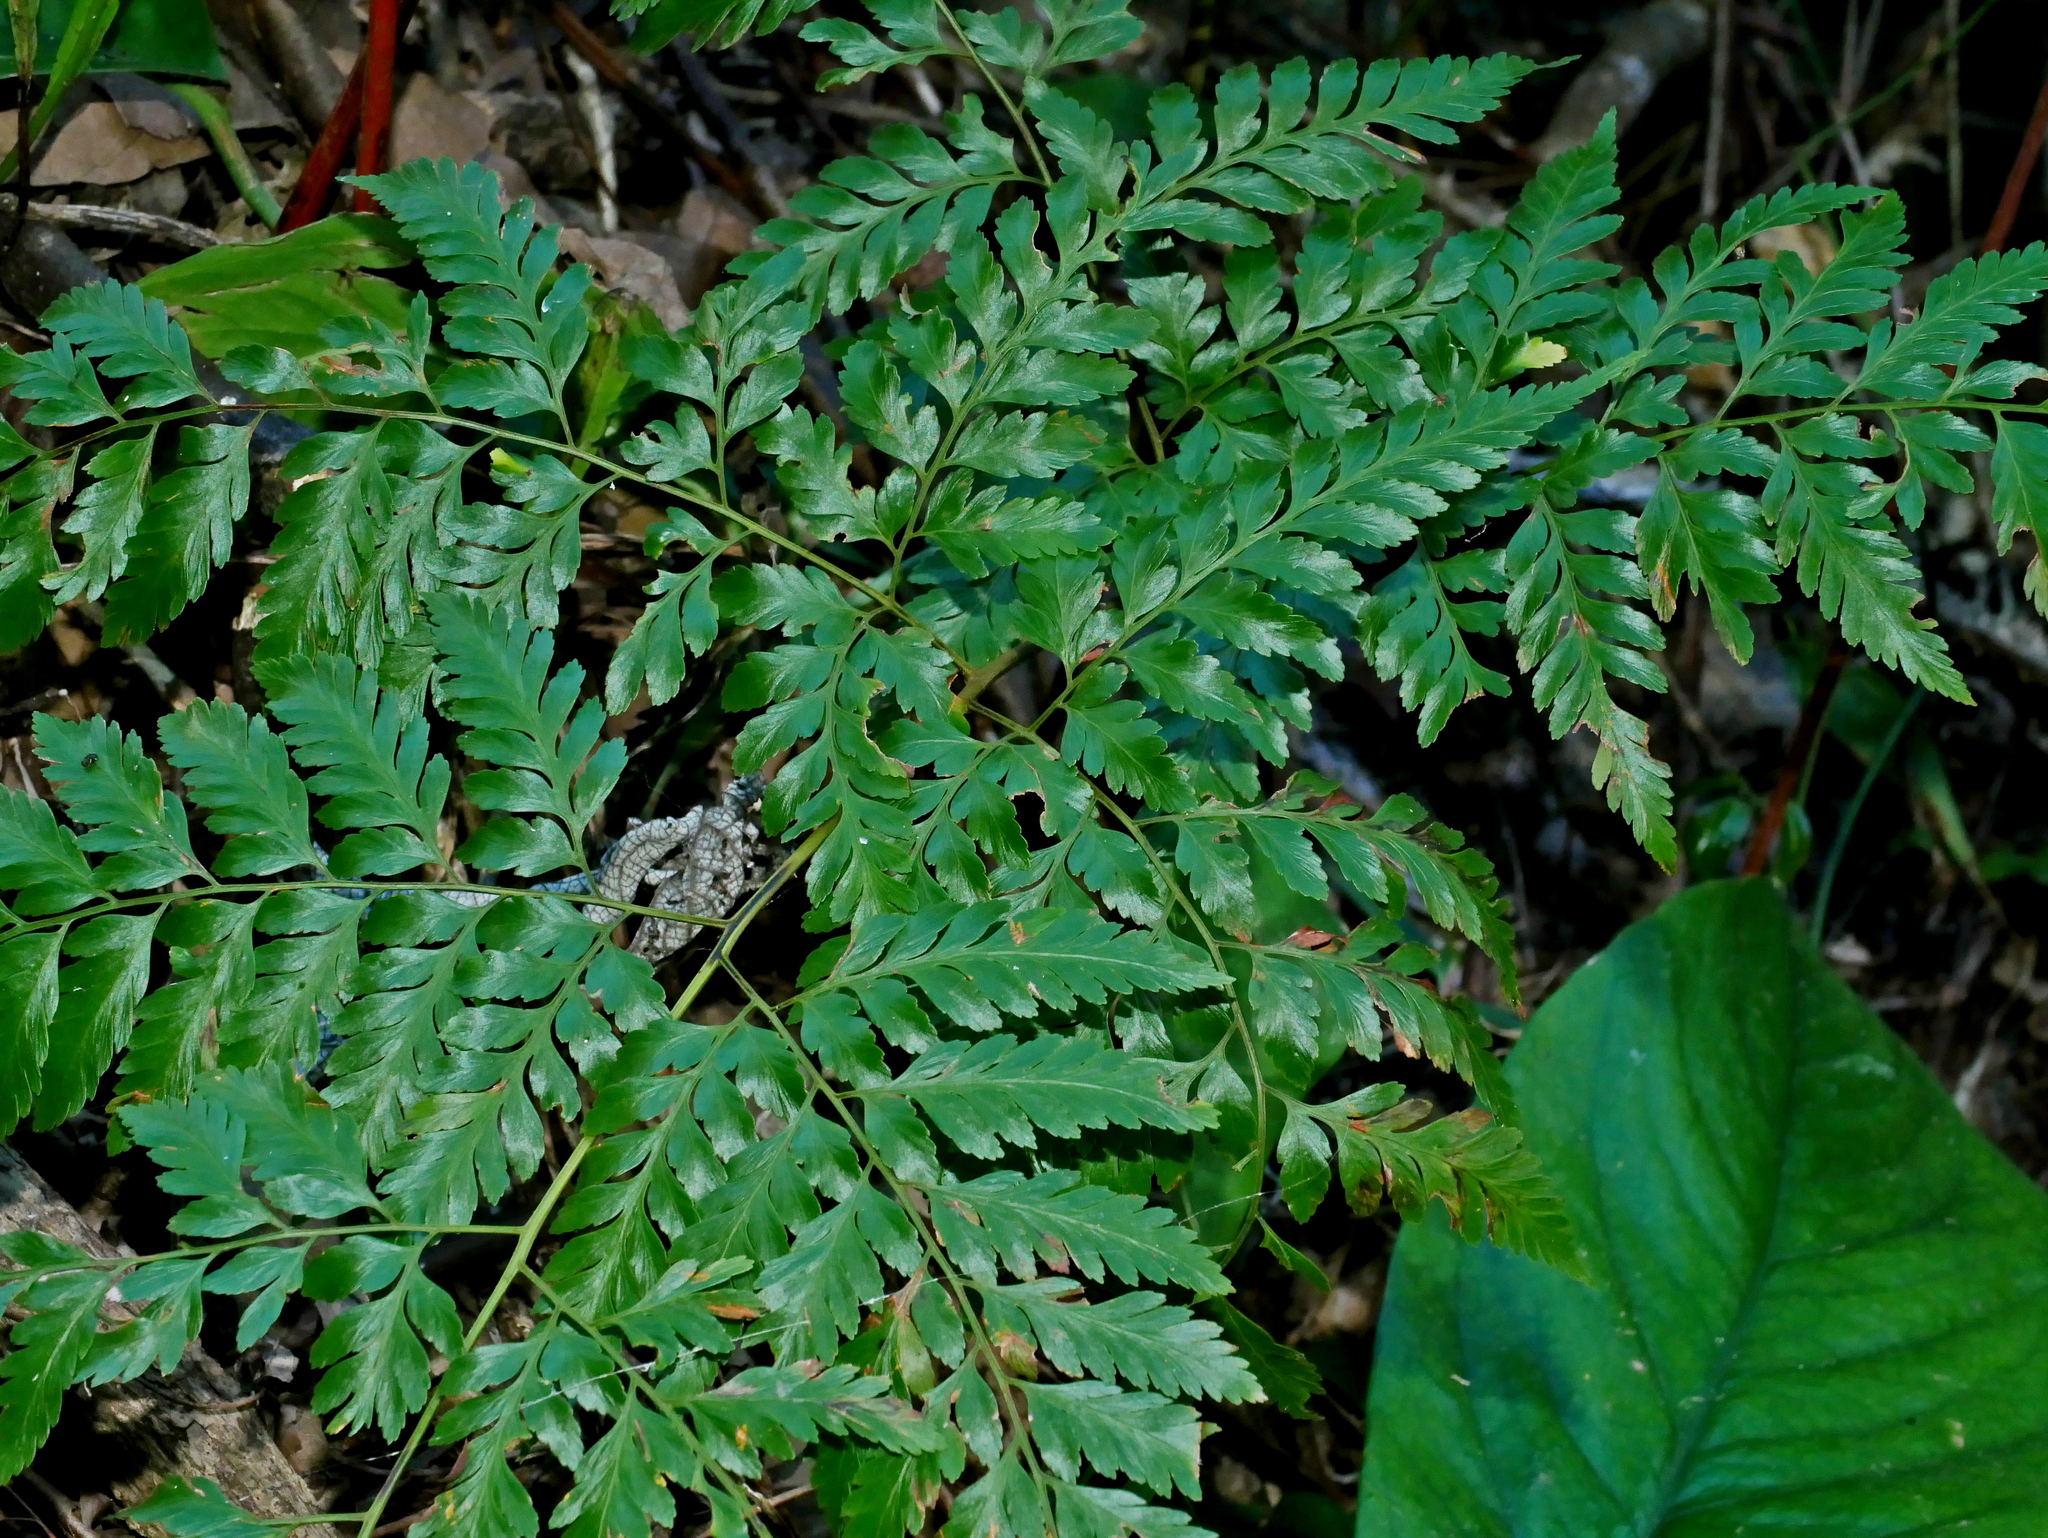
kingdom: Plantae
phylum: Tracheophyta
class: Polypodiopsida
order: Polypodiales
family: Davalliaceae
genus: Davallia
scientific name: Davallia divaricata
